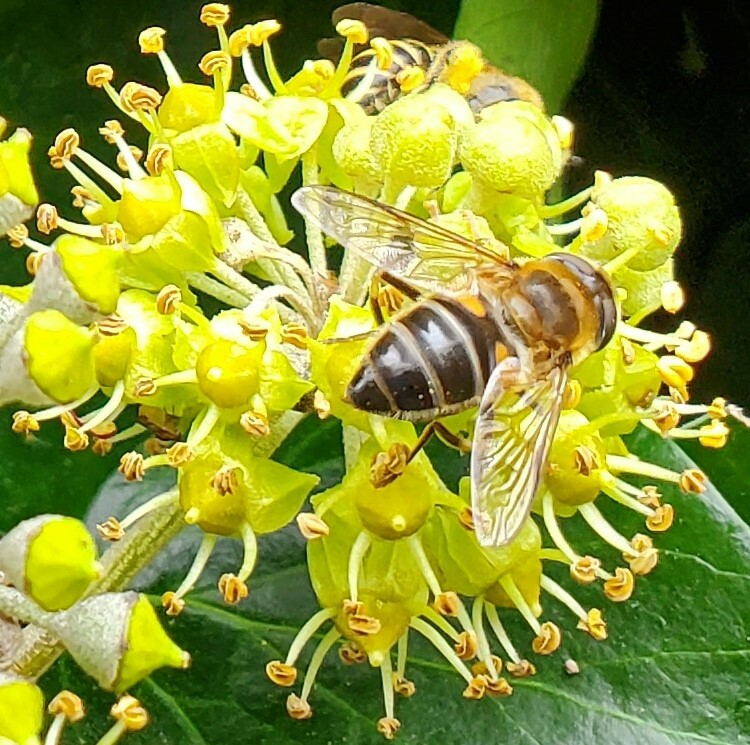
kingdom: Animalia
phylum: Arthropoda
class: Insecta
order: Diptera
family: Syrphidae
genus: Eoseristalis
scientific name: Eoseristalis
